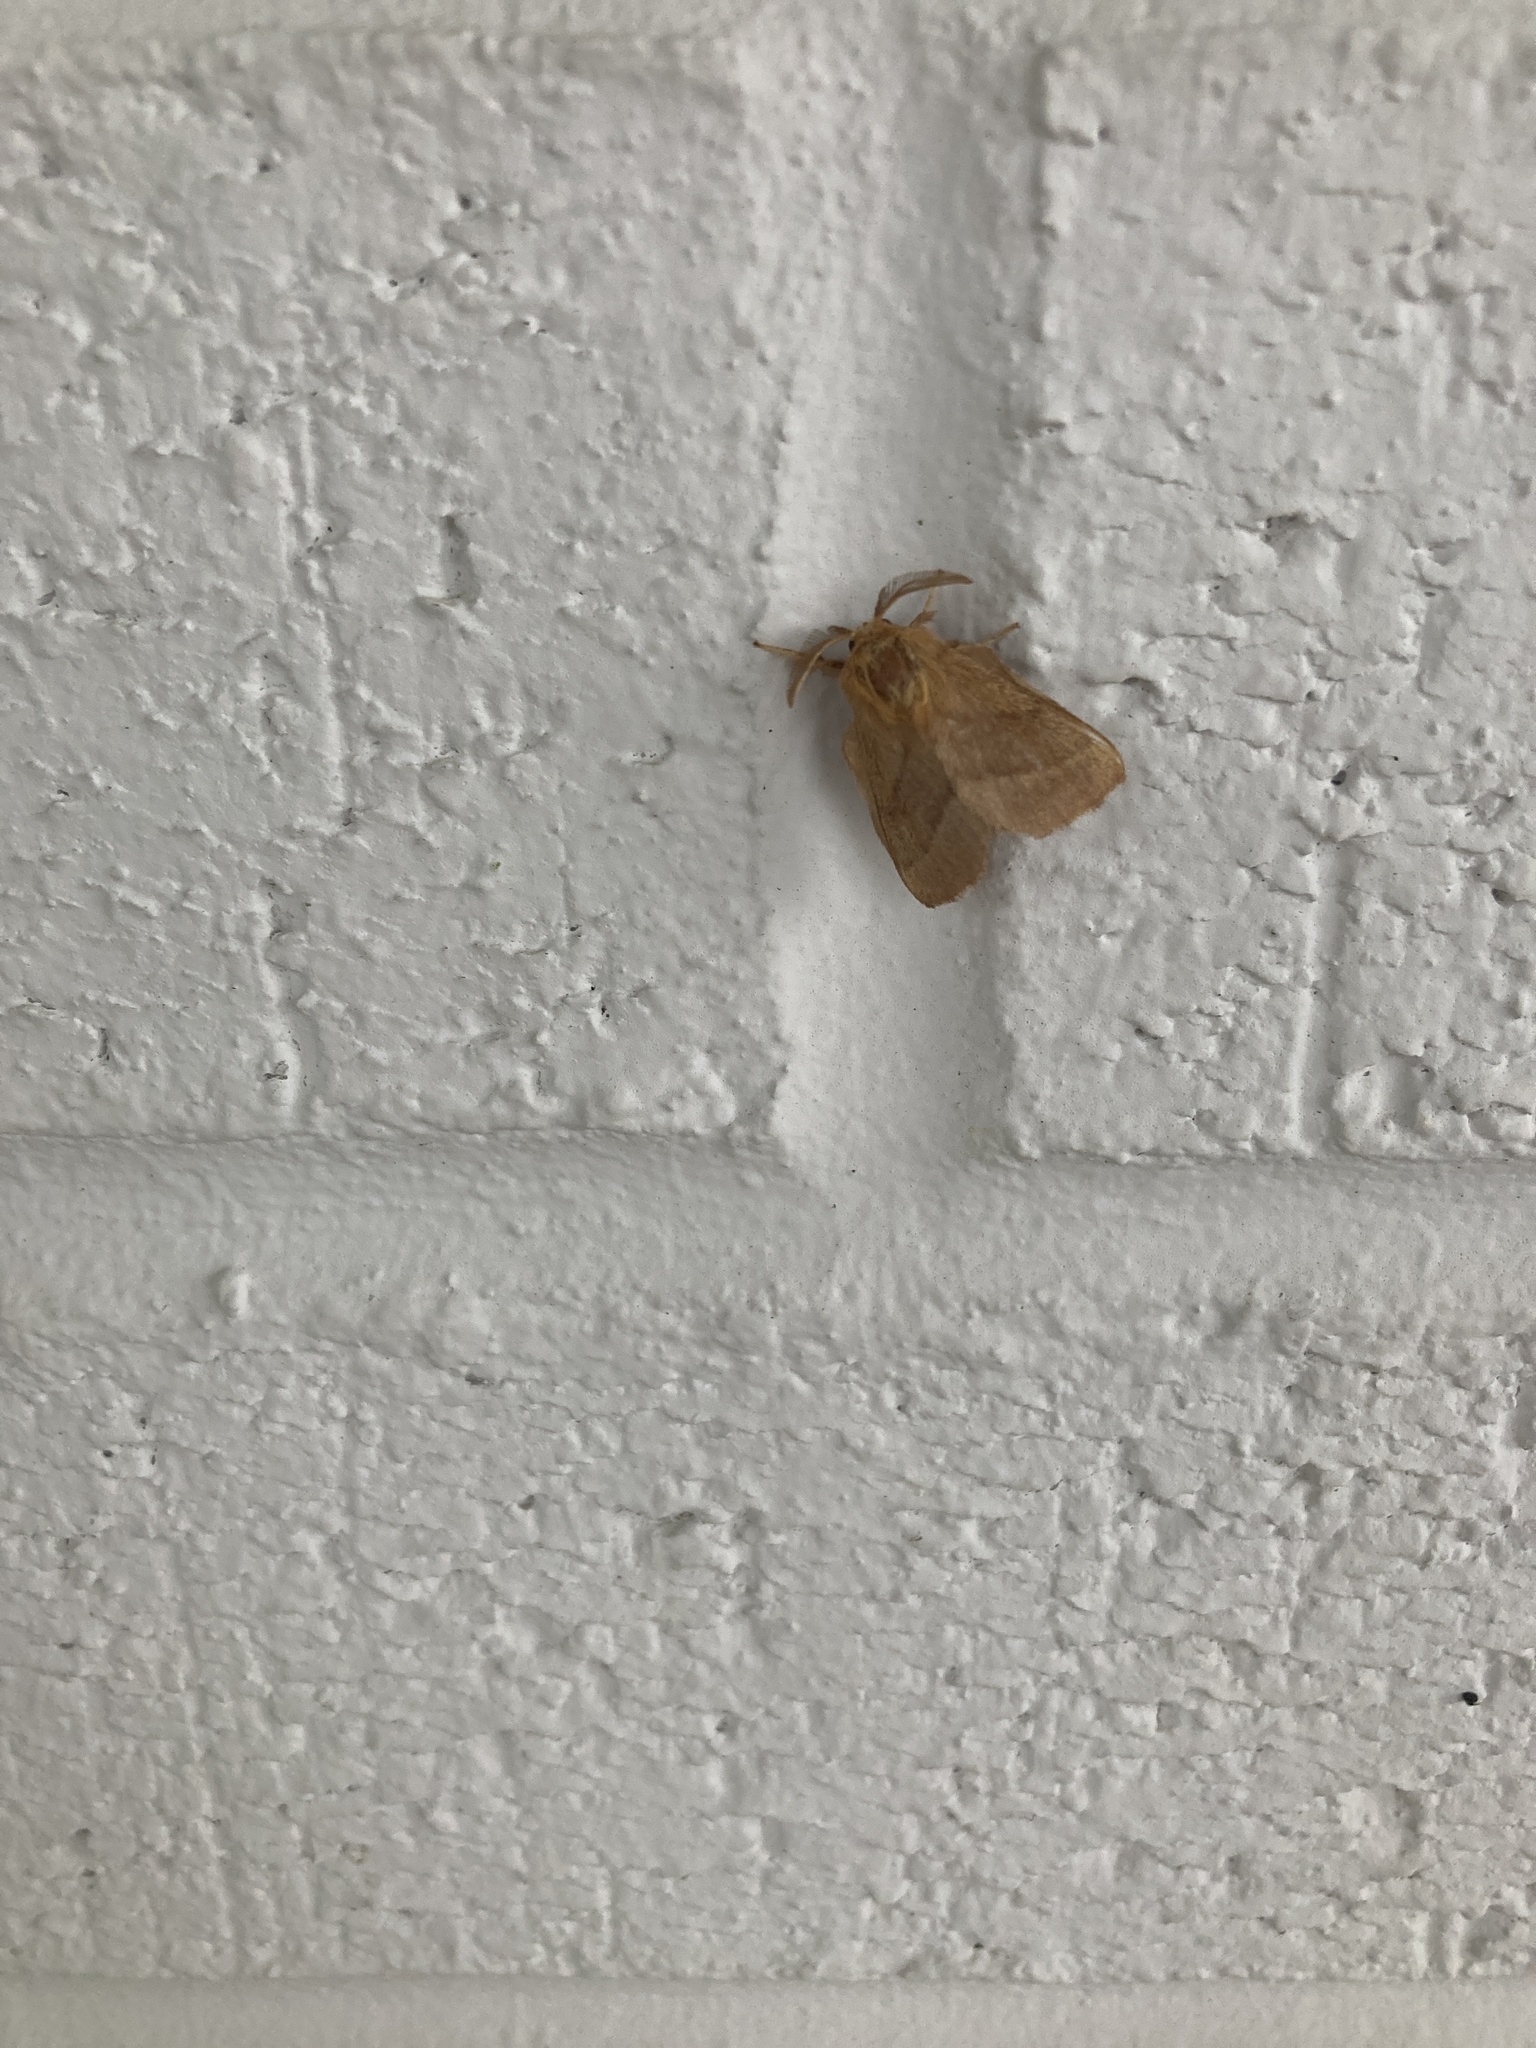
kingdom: Animalia
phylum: Arthropoda
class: Insecta
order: Lepidoptera
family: Lasiocampidae
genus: Malacosoma
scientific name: Malacosoma disstria
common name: Forest tent caterpillar
